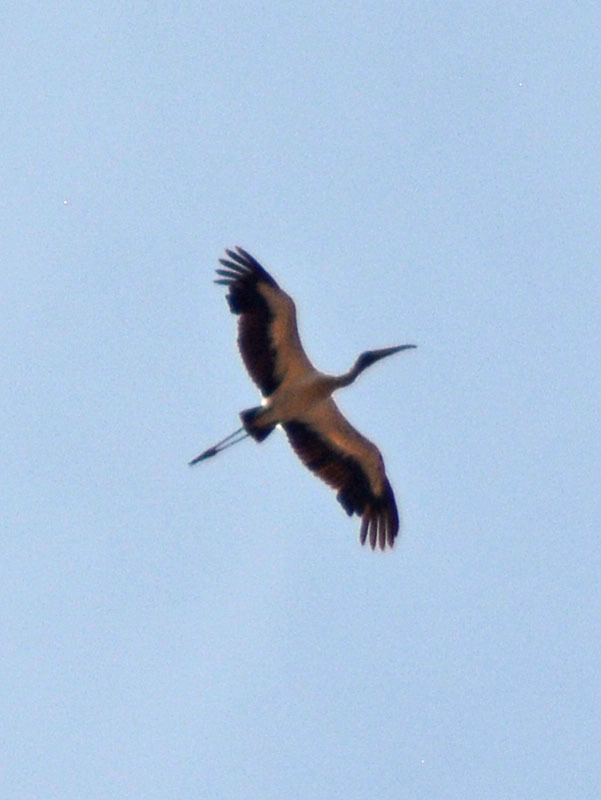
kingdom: Animalia
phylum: Chordata
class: Aves
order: Ciconiiformes
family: Ciconiidae
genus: Mycteria
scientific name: Mycteria americana
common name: Wood stork
